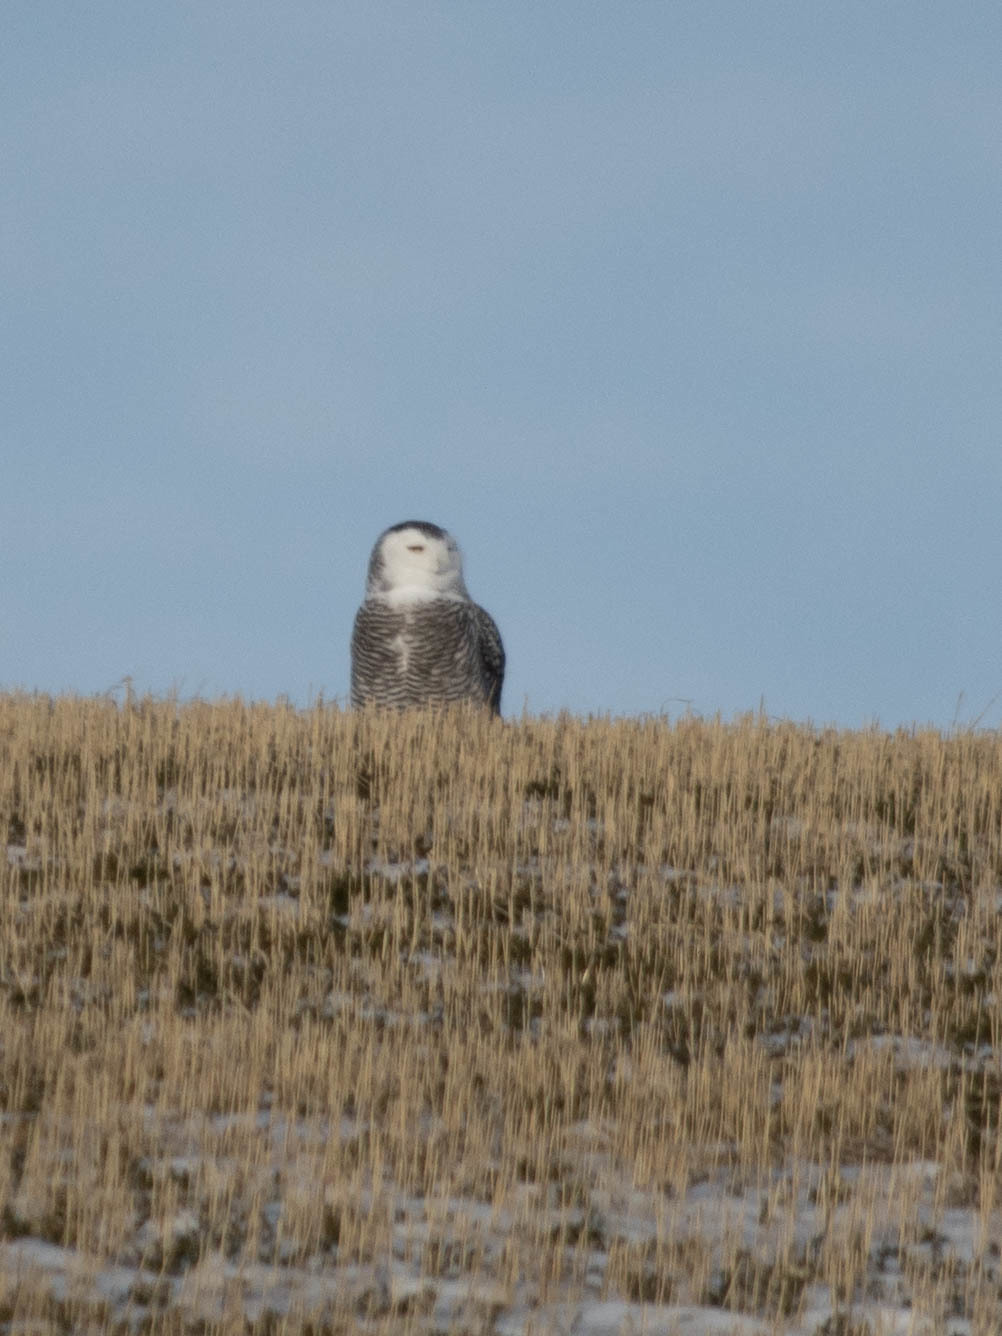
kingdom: Animalia
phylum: Chordata
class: Aves
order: Strigiformes
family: Strigidae
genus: Bubo
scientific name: Bubo scandiacus
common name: Snowy owl
